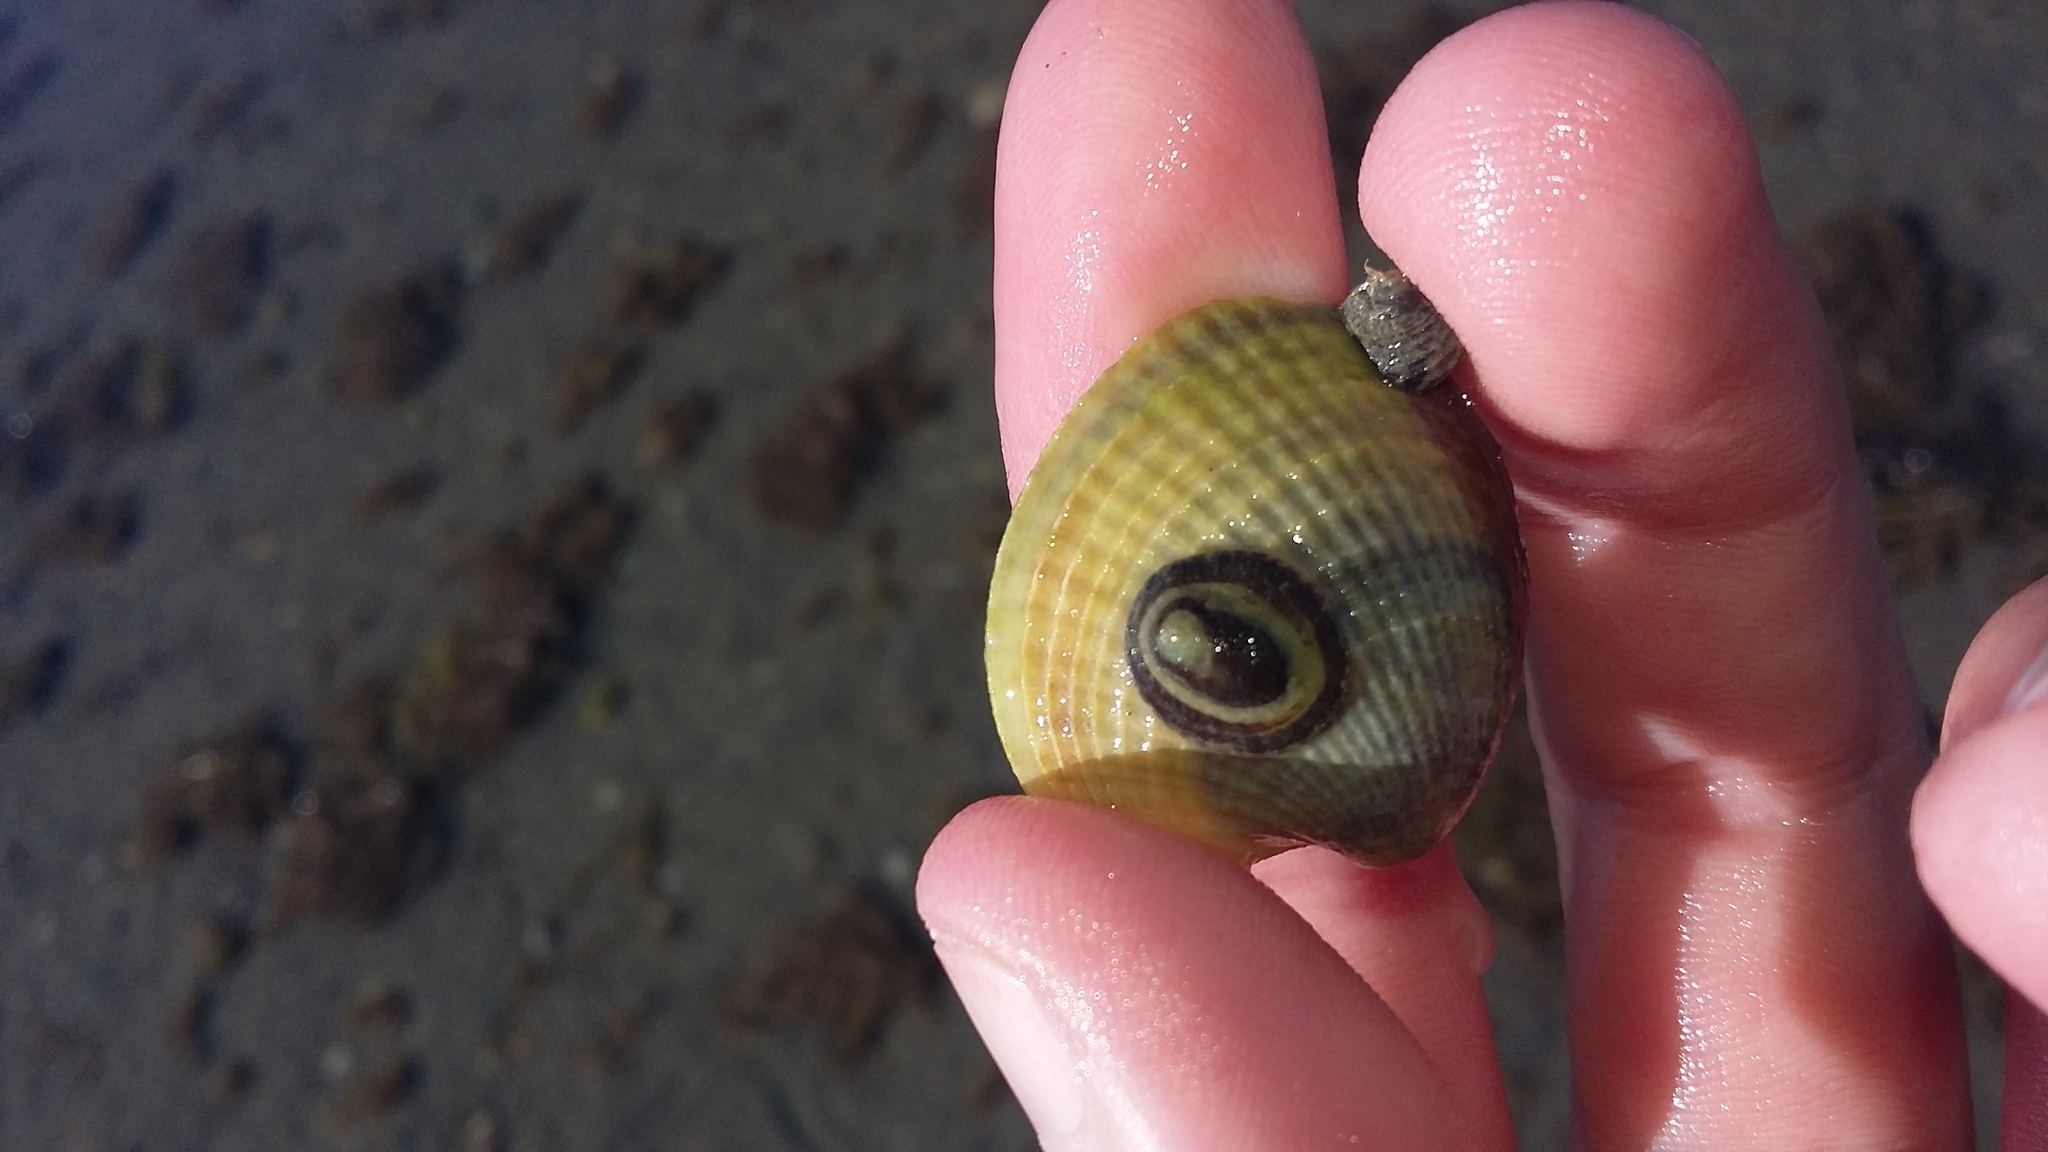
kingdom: Animalia
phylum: Mollusca
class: Gastropoda
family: Lottiidae
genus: Notoacmea
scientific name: Notoacmea potae
